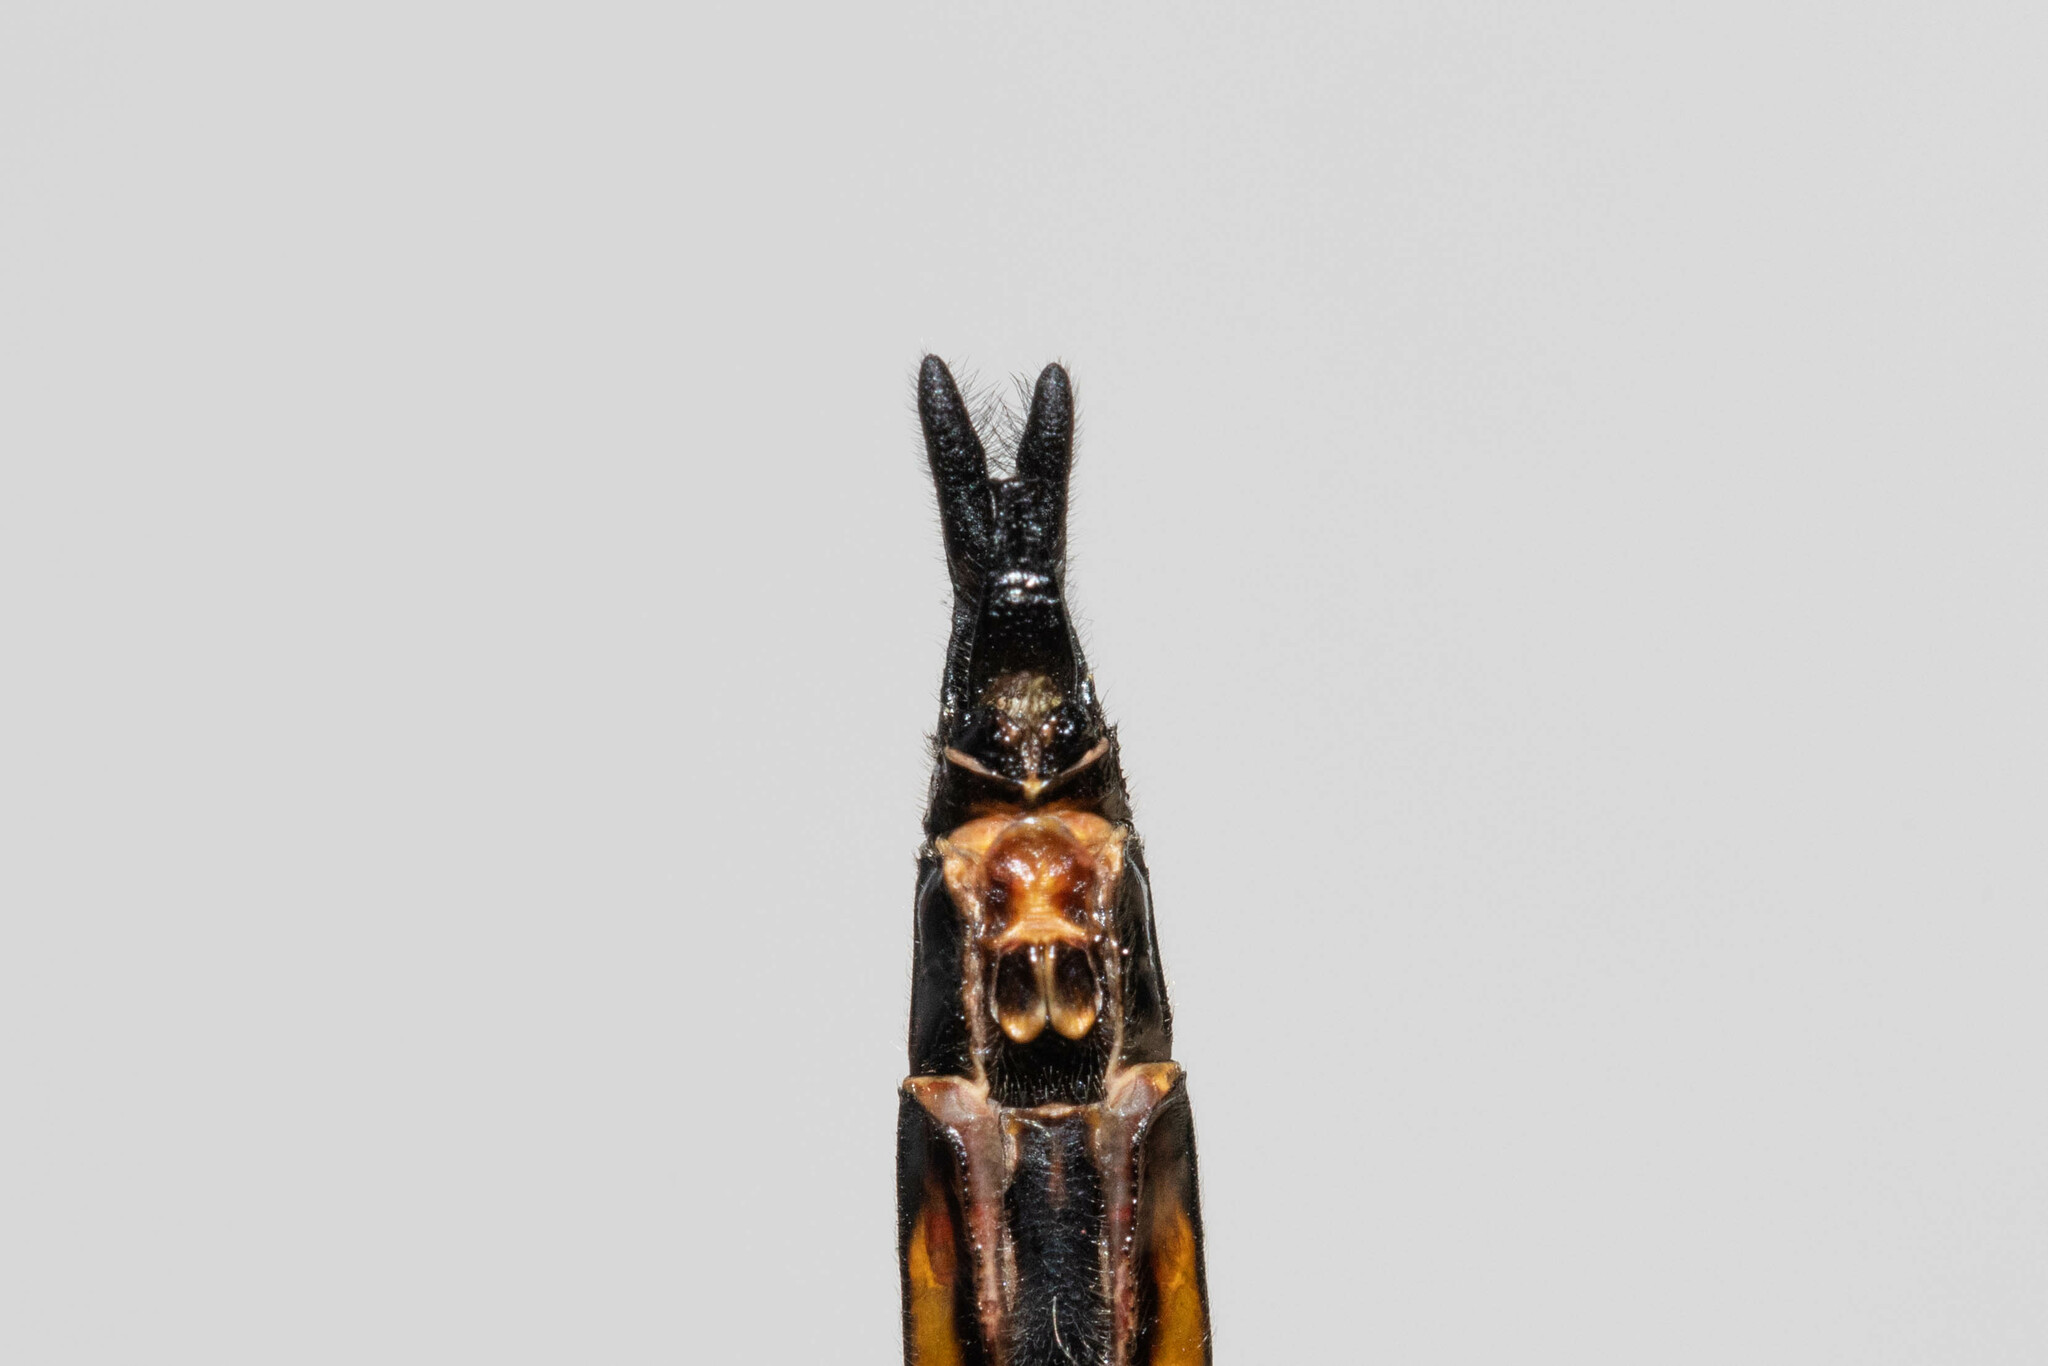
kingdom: Animalia
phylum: Arthropoda
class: Insecta
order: Odonata
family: Corduliidae
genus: Epitheca
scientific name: Epitheca cynosura
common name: Common baskettail
